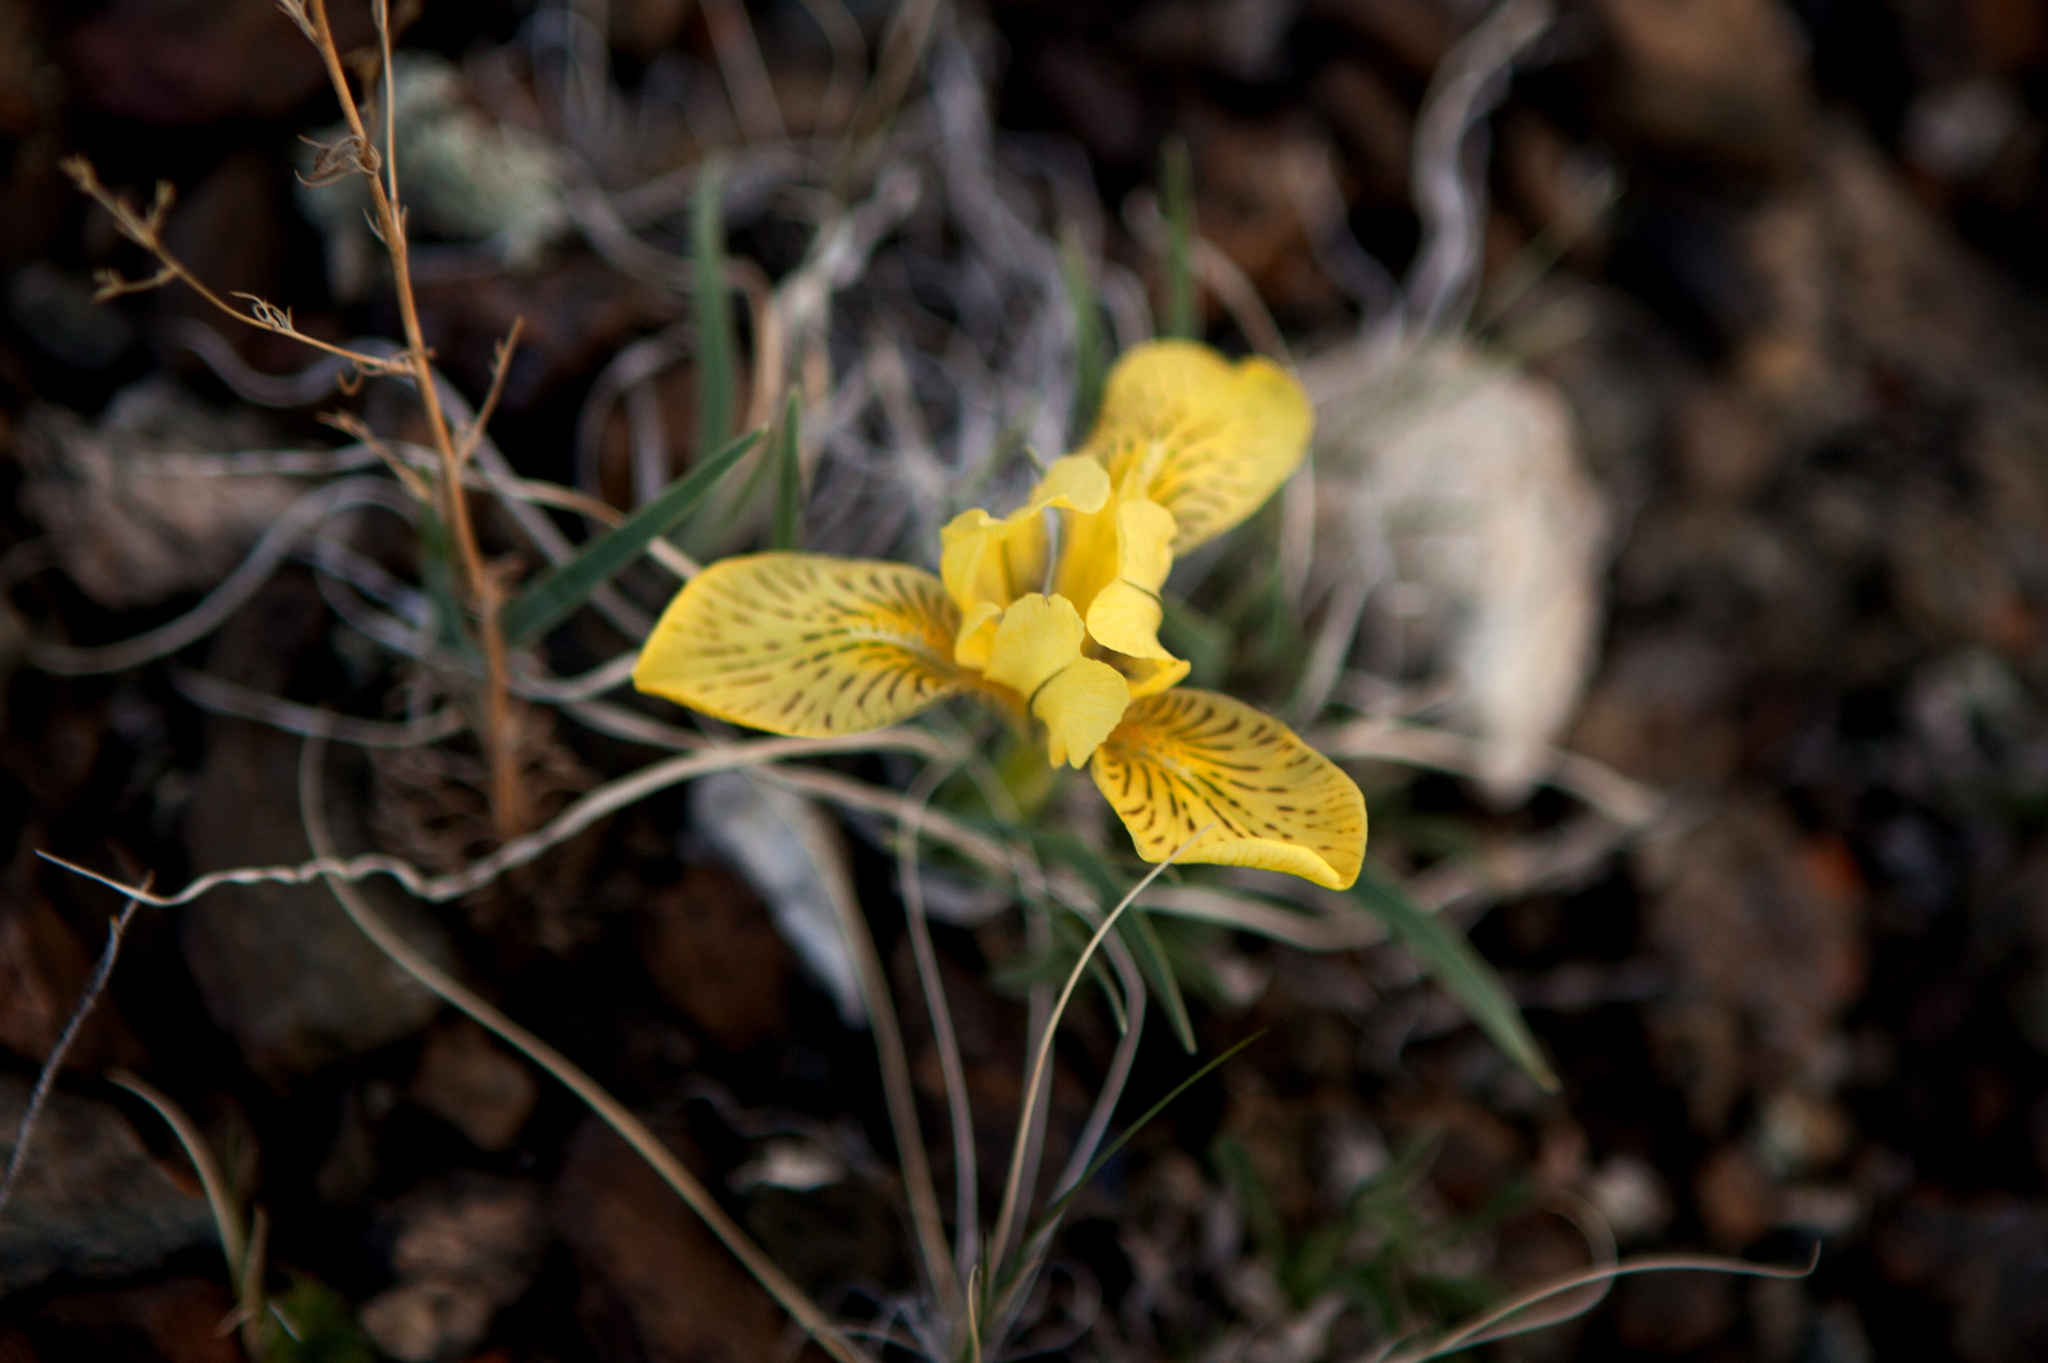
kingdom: Plantae
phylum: Tracheophyta
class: Liliopsida
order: Asparagales
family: Iridaceae
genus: Iris
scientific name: Iris potaninii
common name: Curl-sheath iris
